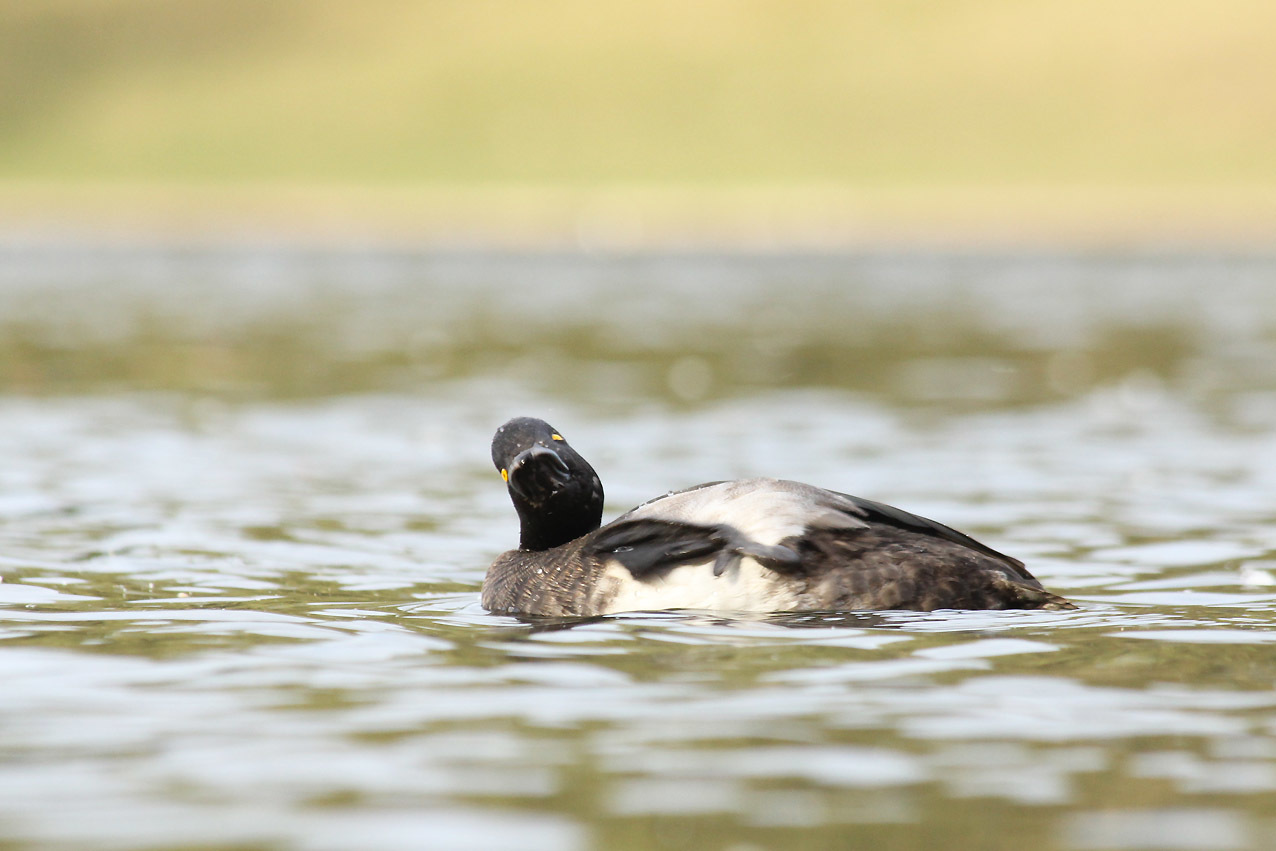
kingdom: Animalia
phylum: Chordata
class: Aves
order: Anseriformes
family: Anatidae
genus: Aythya
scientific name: Aythya fuligula
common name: Tufted duck
